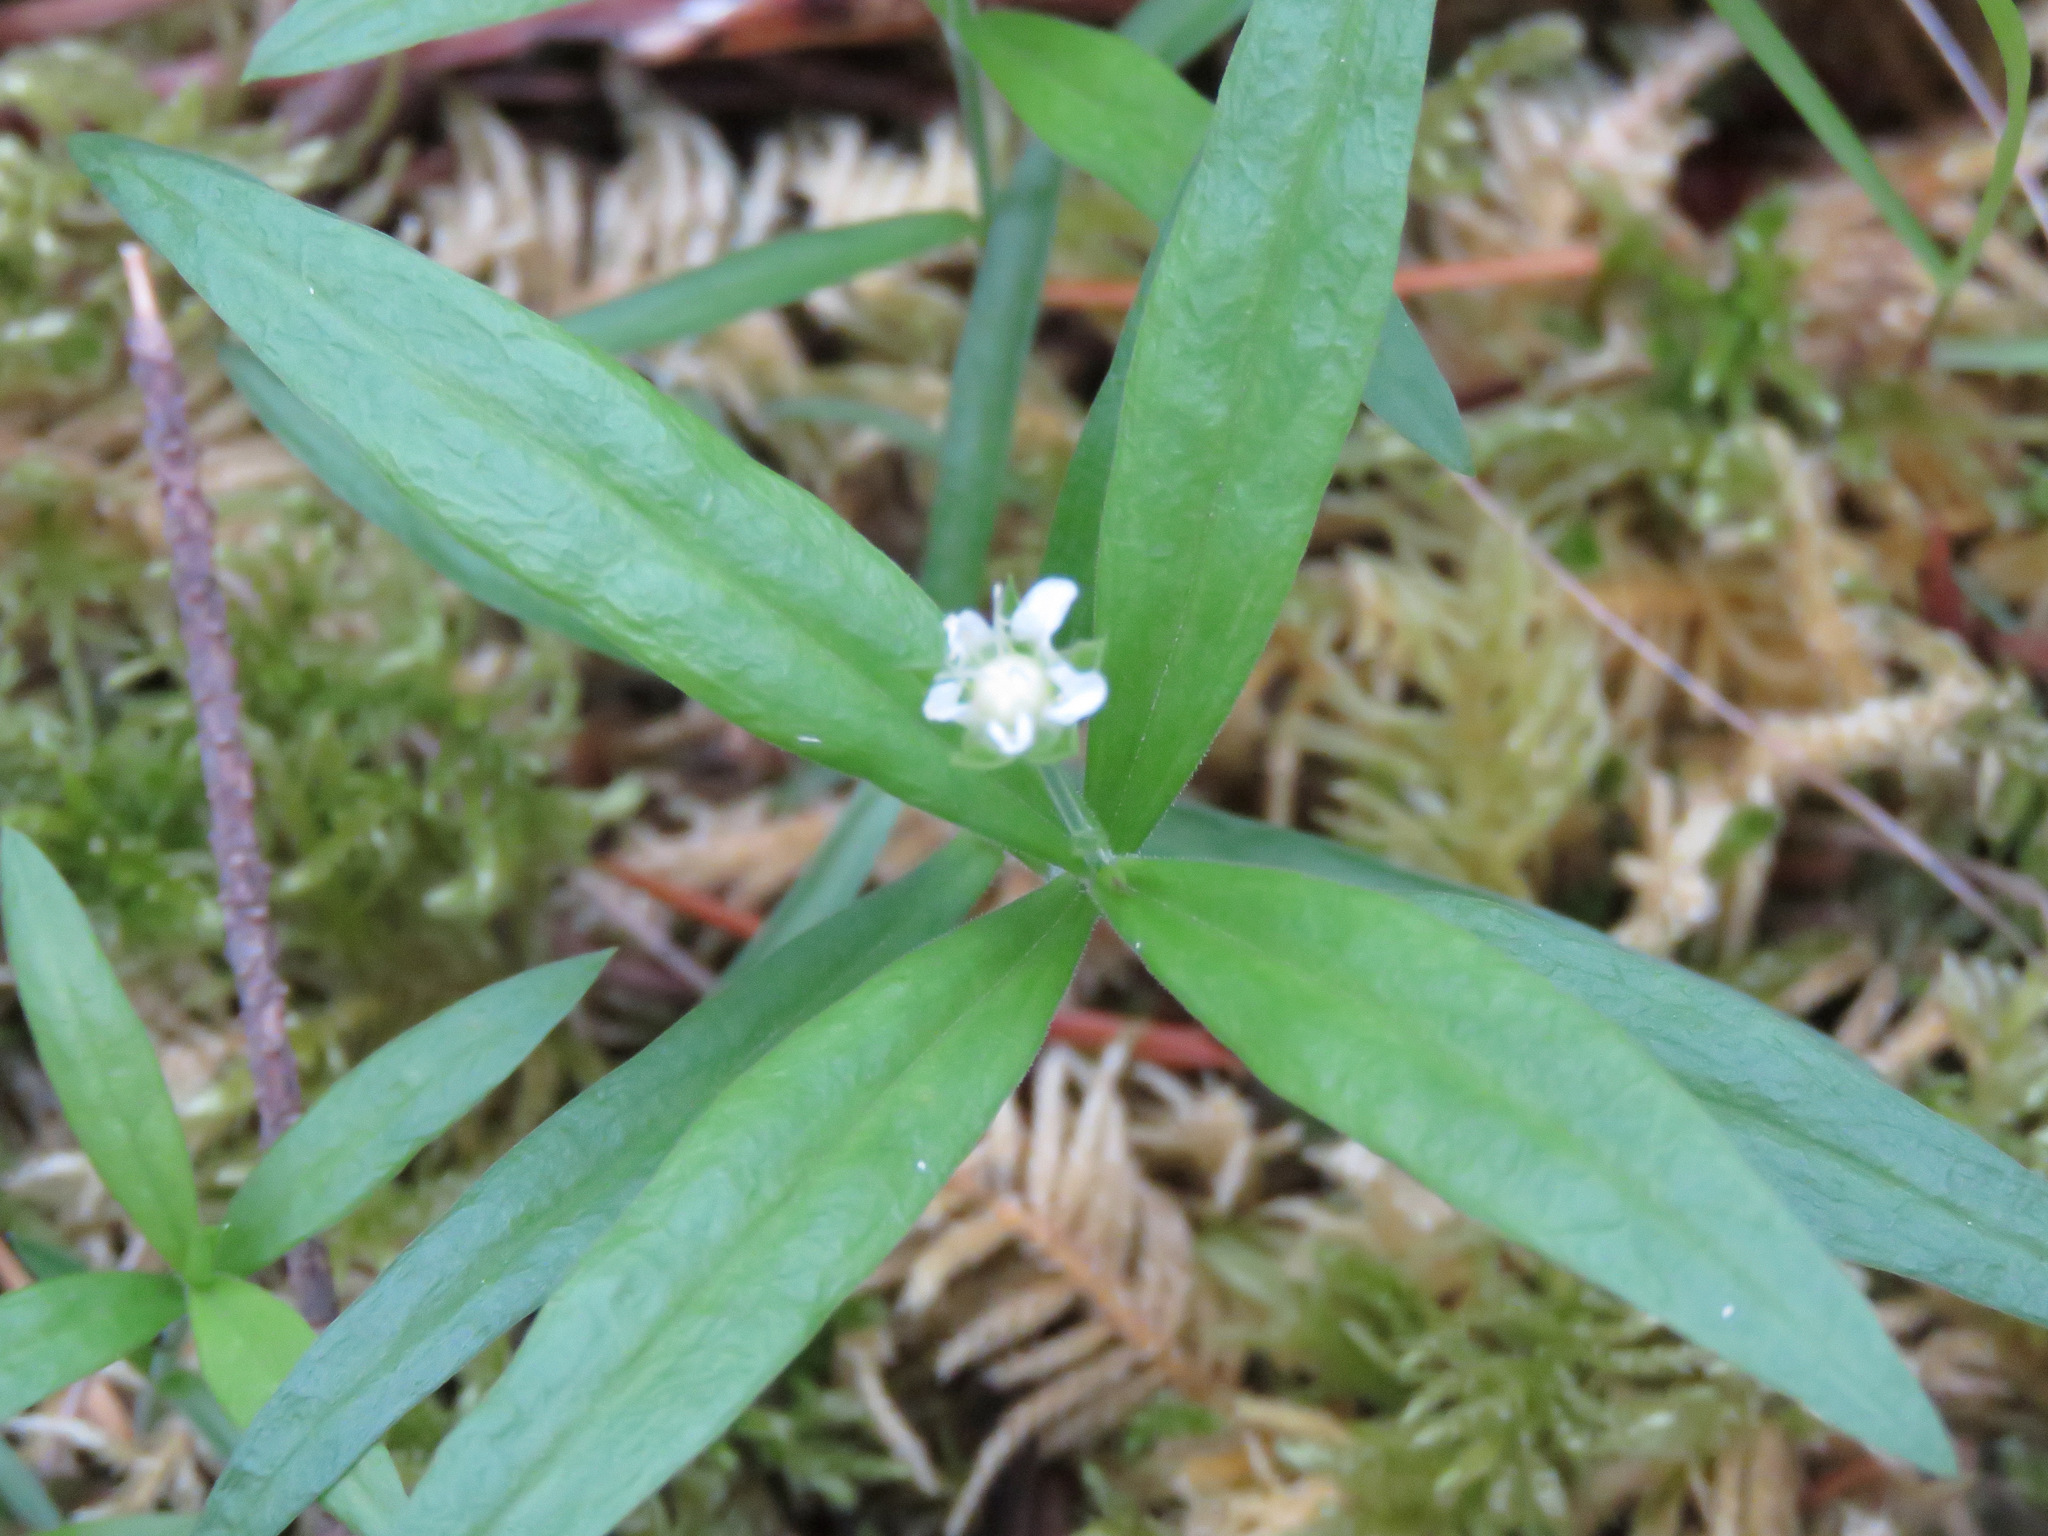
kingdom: Plantae
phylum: Tracheophyta
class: Magnoliopsida
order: Caryophyllales
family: Caryophyllaceae
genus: Moehringia
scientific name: Moehringia macrophylla
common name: Big-leaf sandwort
